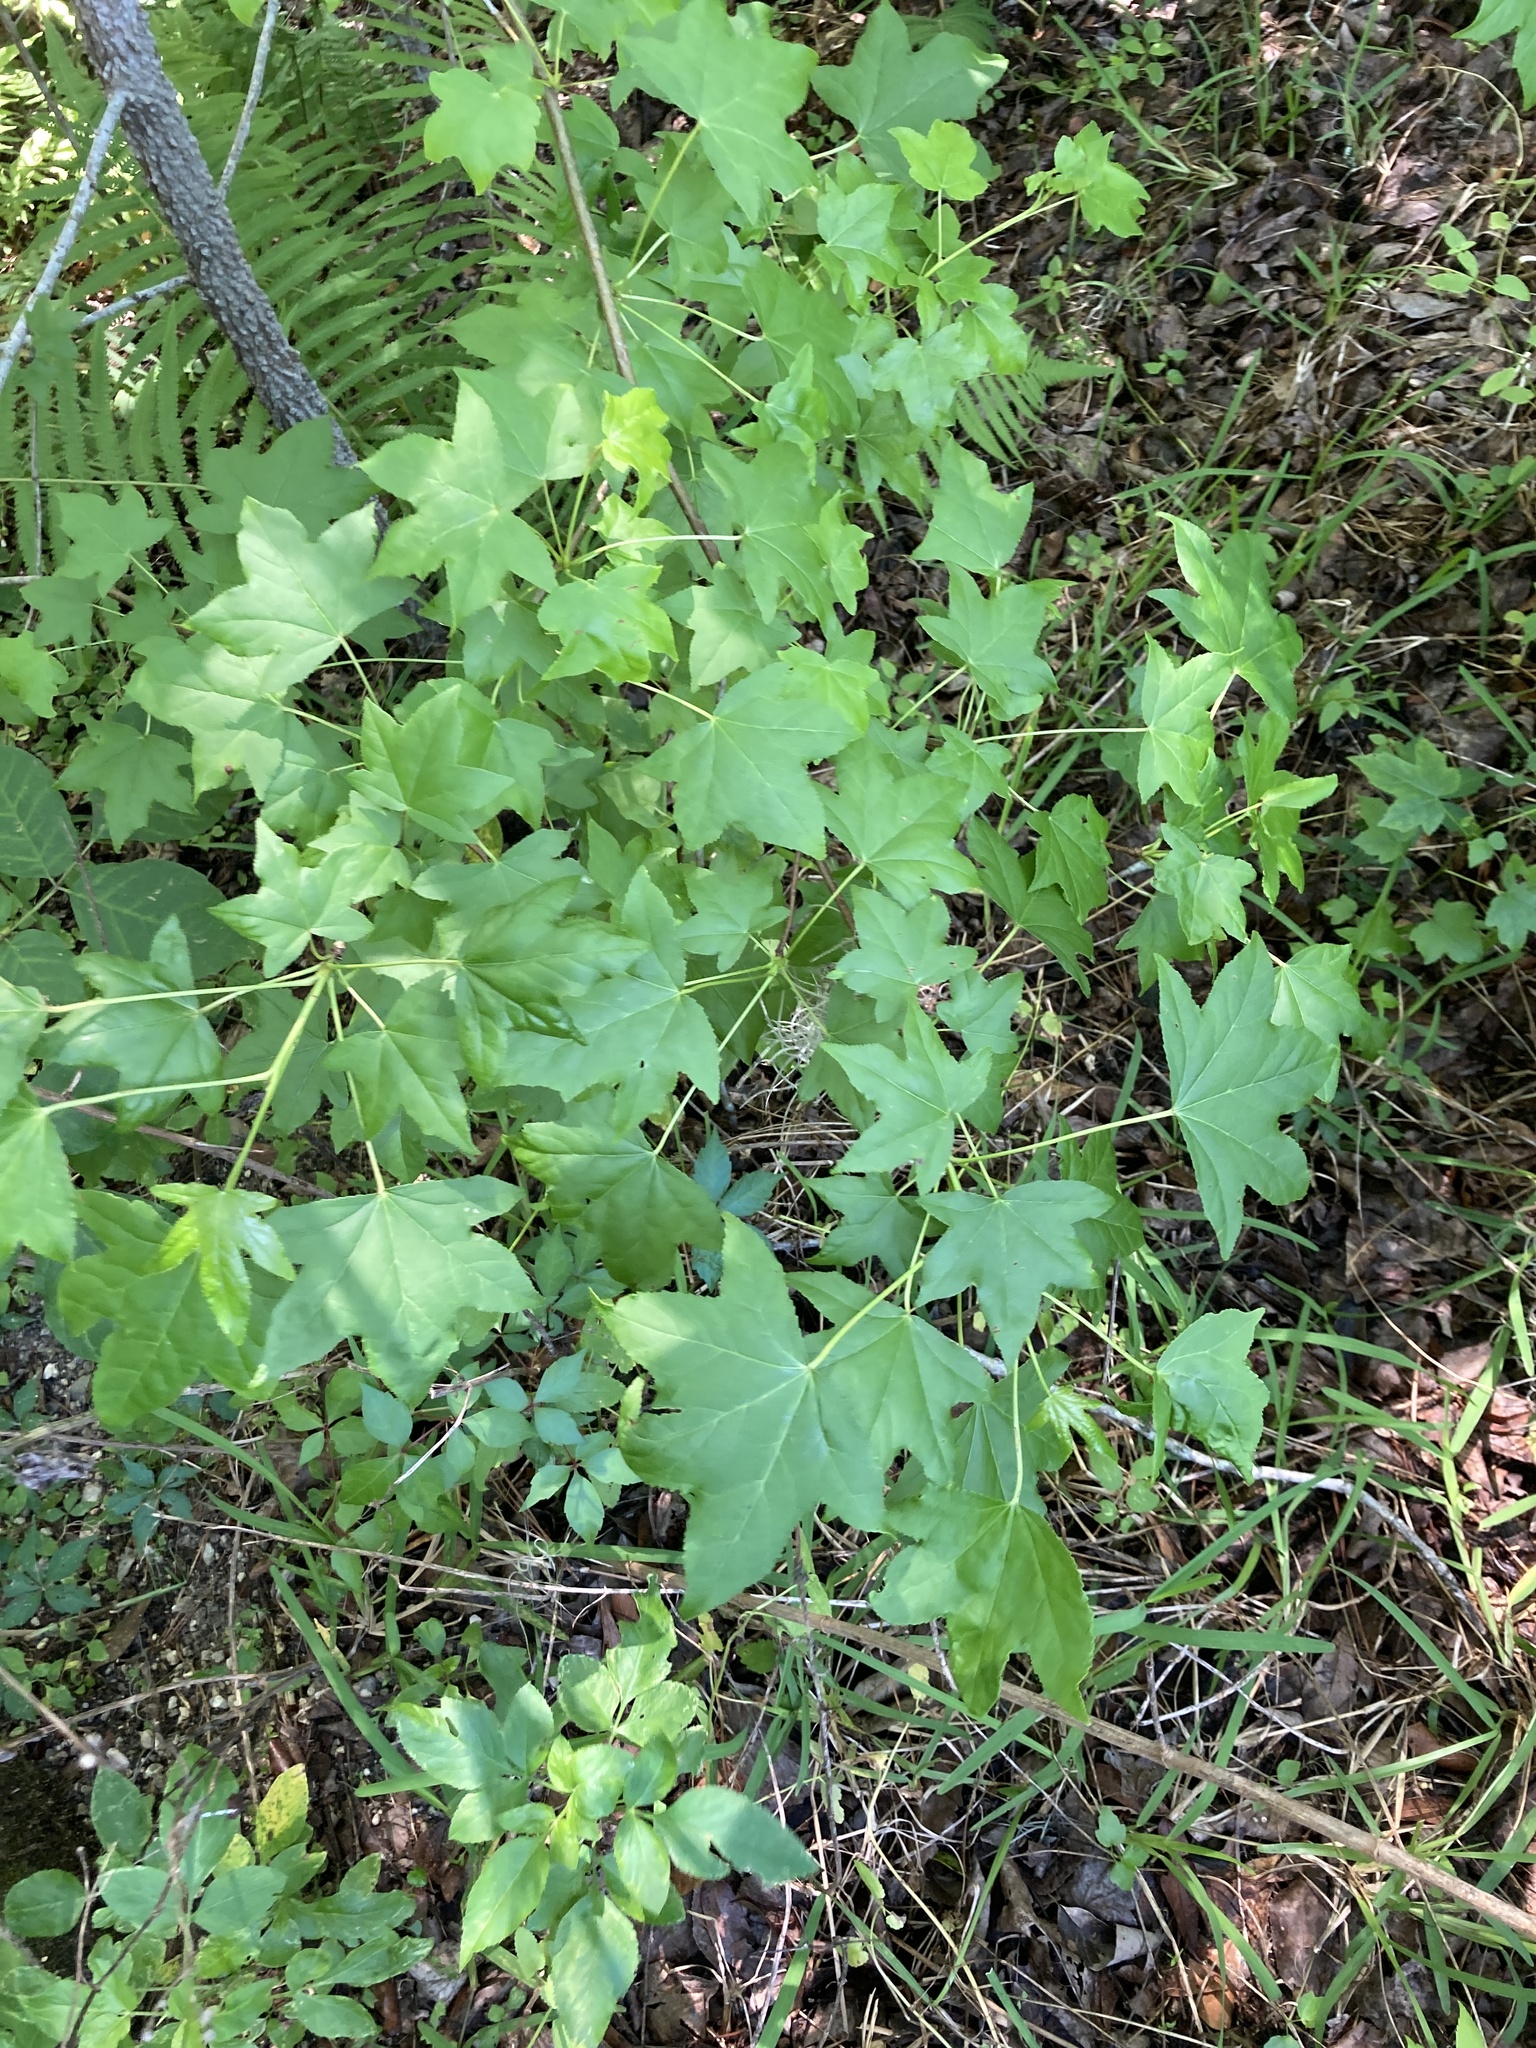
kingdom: Plantae
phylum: Tracheophyta
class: Magnoliopsida
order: Saxifragales
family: Altingiaceae
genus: Liquidambar
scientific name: Liquidambar styraciflua
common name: Sweet gum
